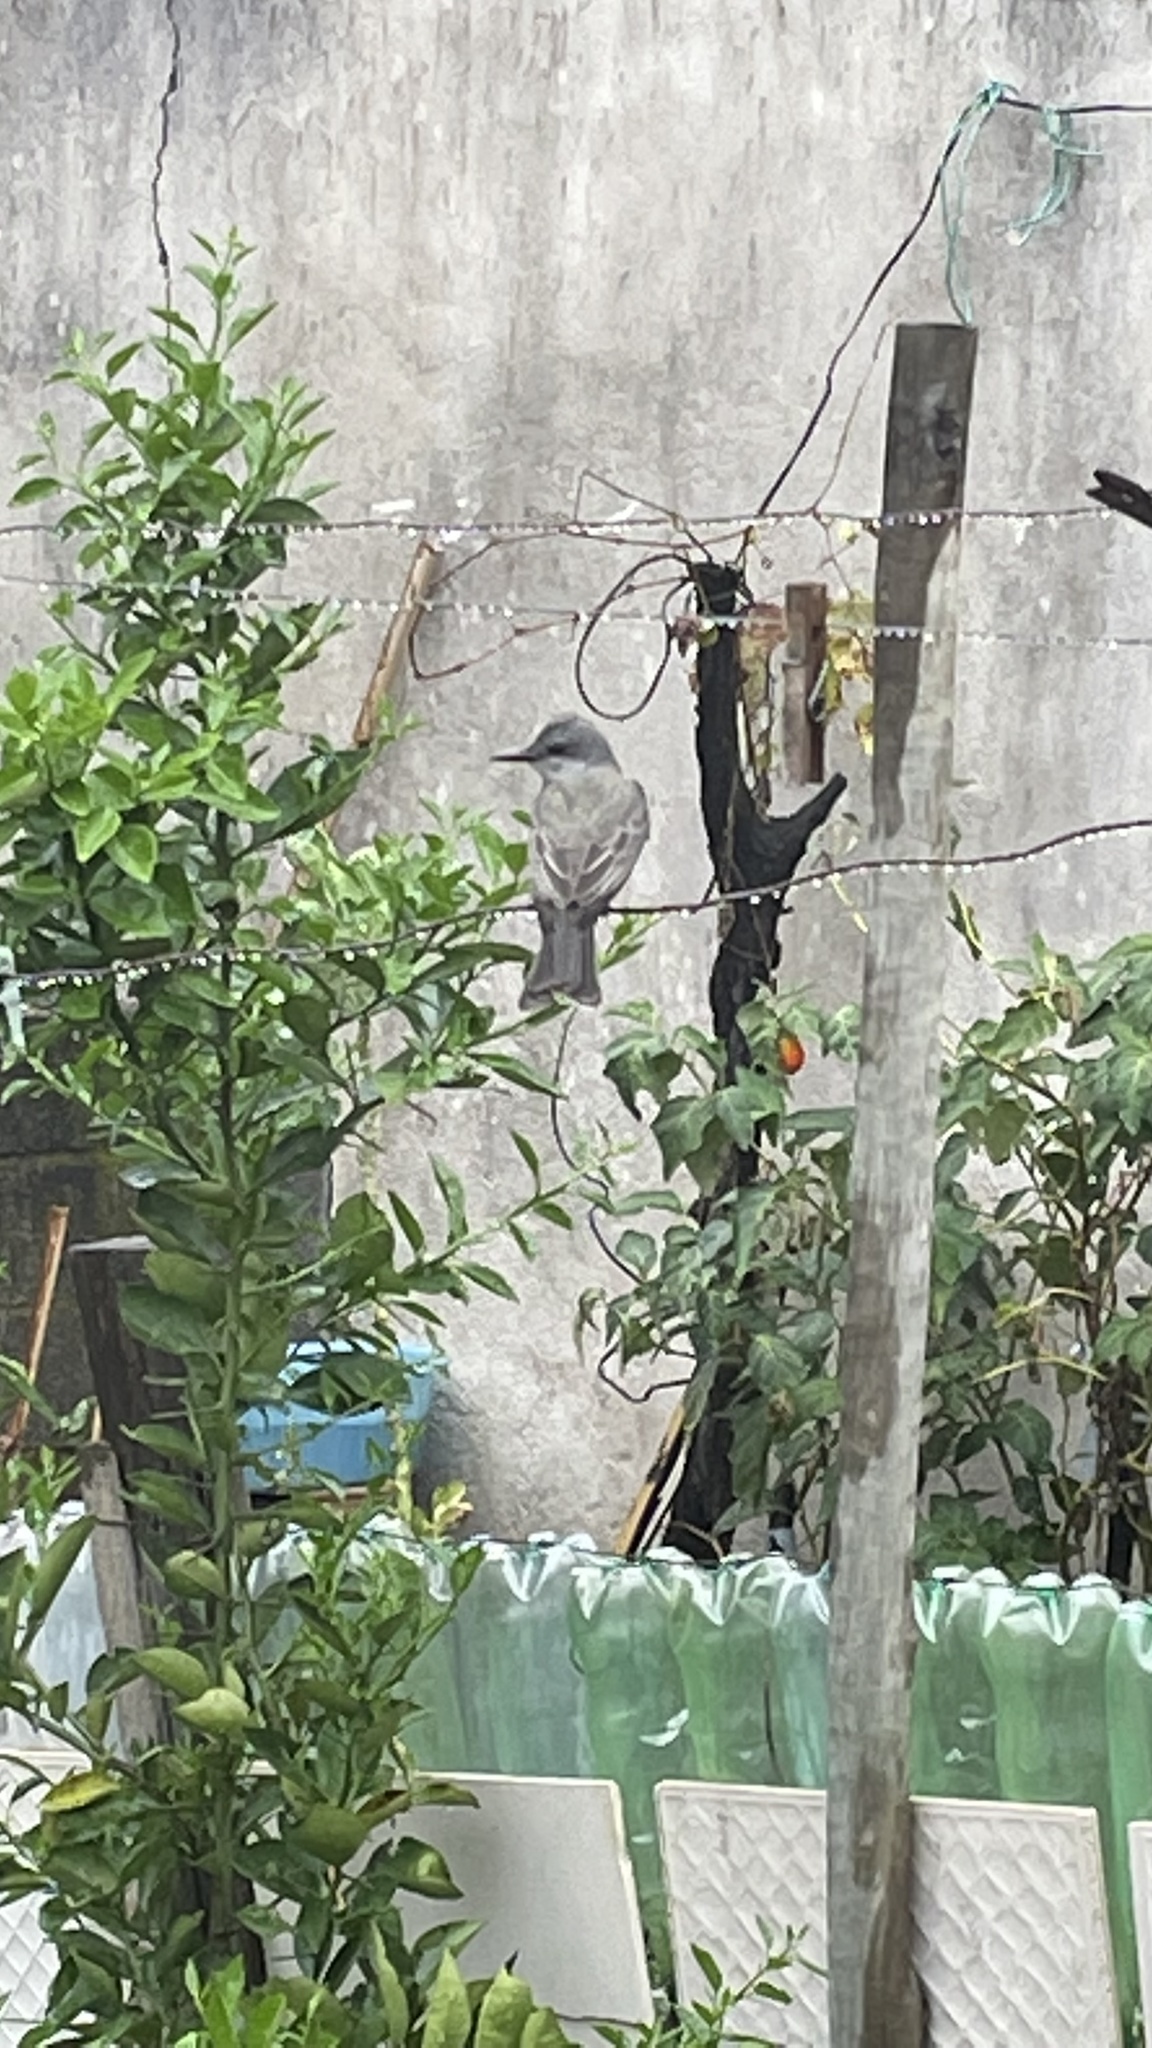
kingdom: Animalia
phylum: Chordata
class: Aves
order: Passeriformes
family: Tyrannidae
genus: Tyrannus
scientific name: Tyrannus melancholicus
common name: Tropical kingbird
